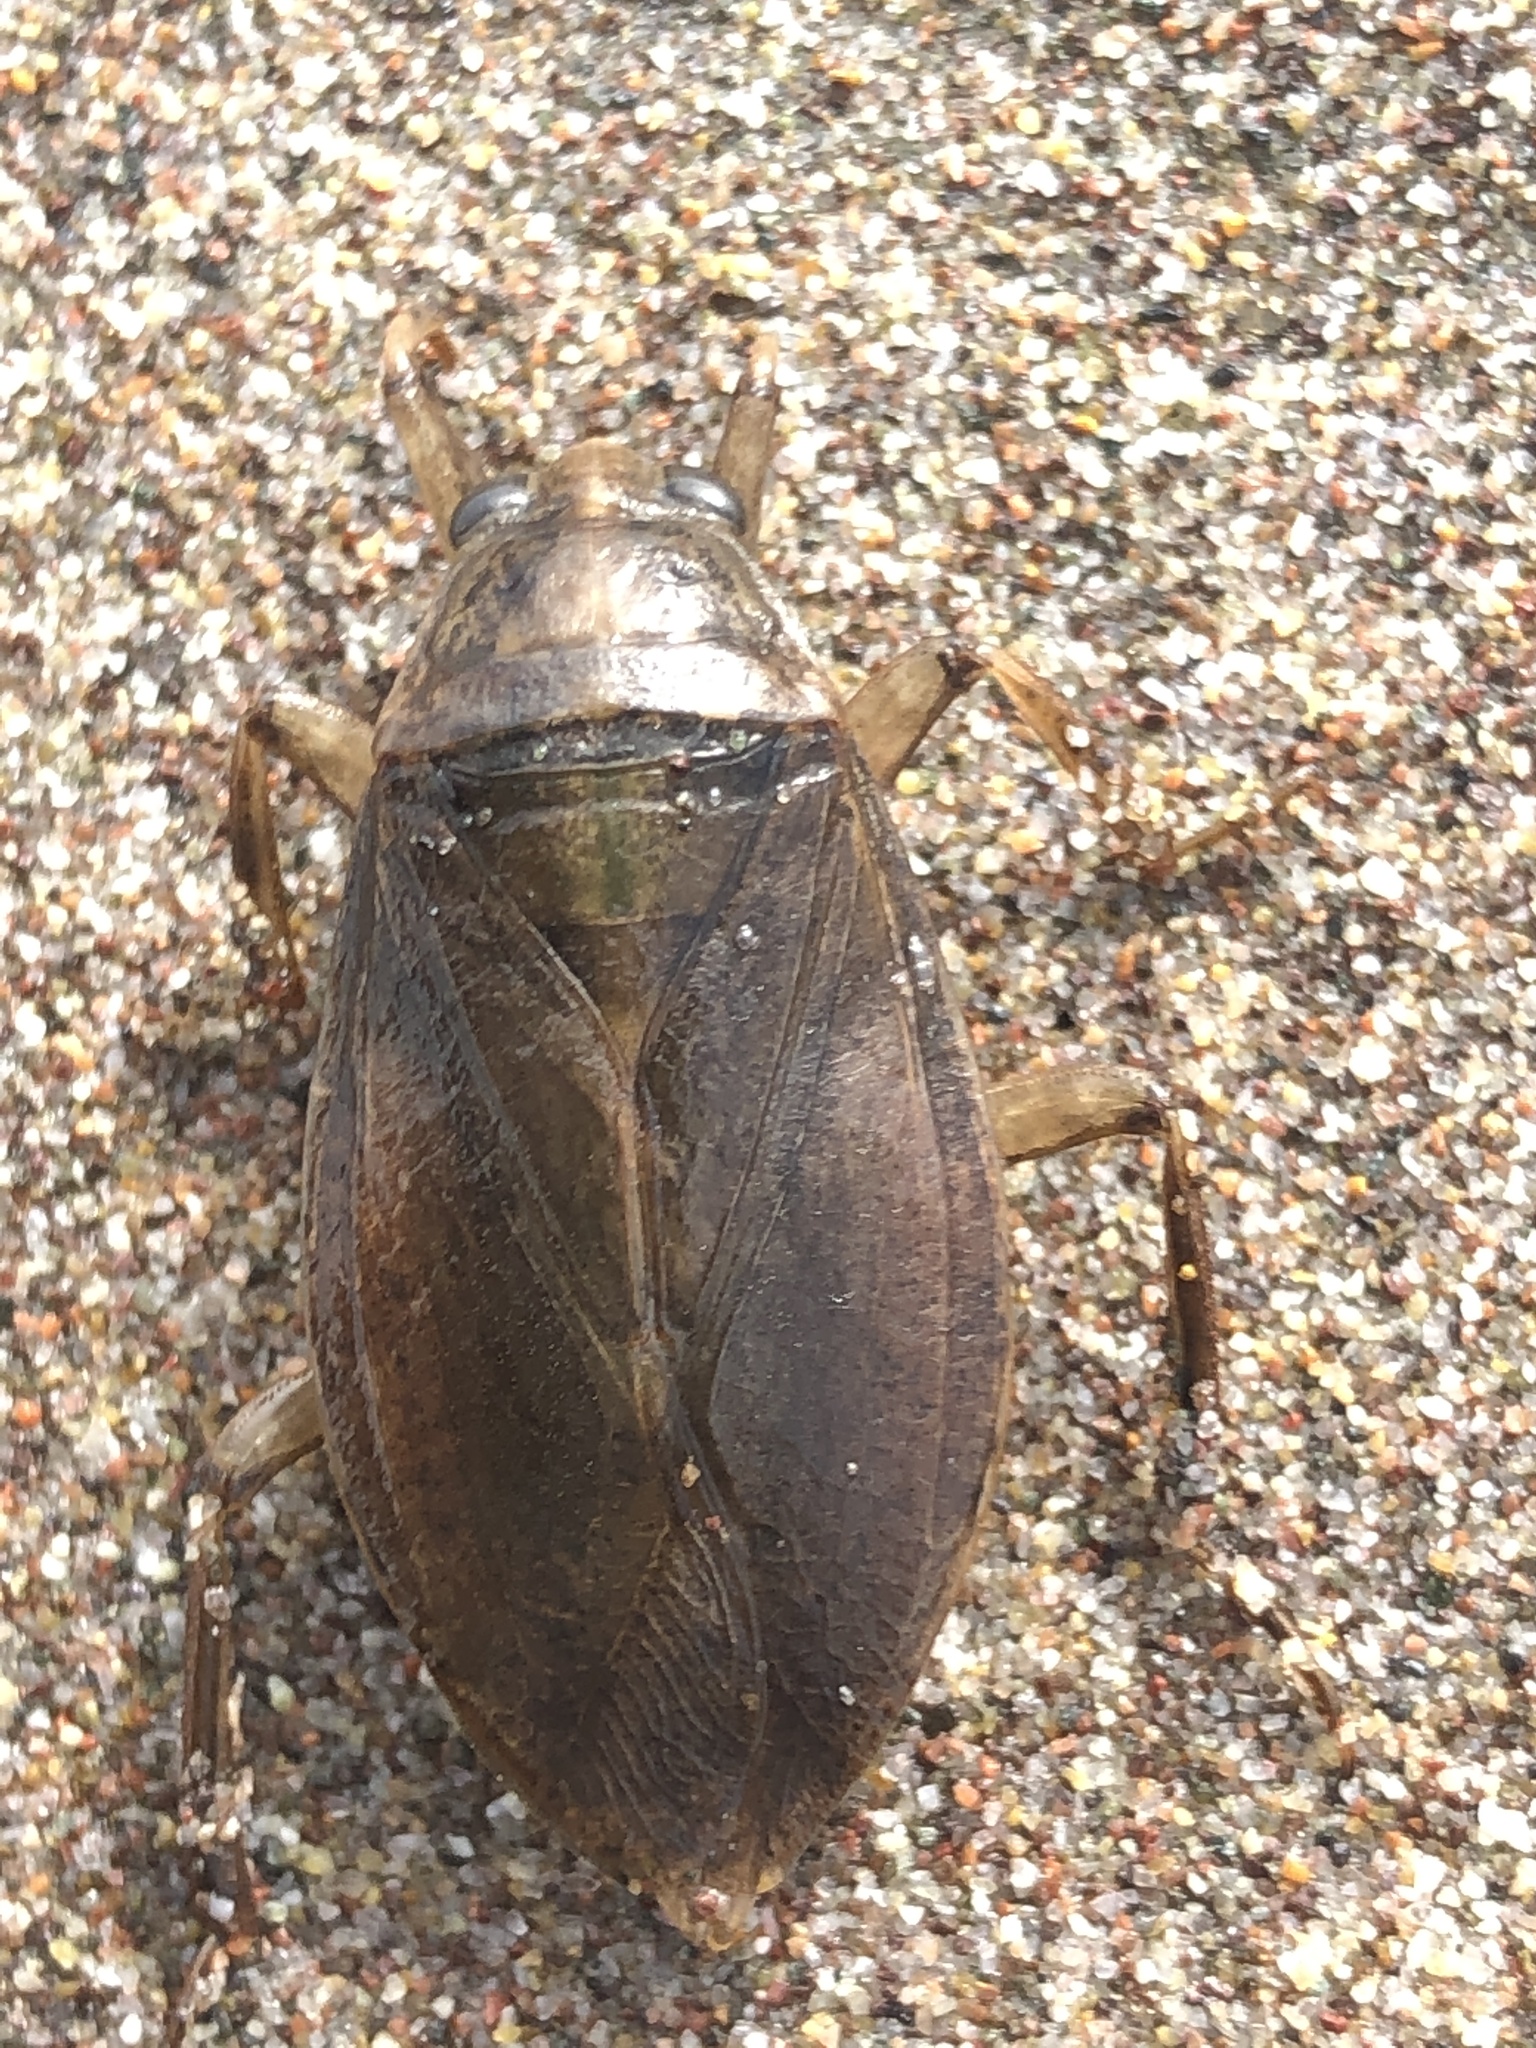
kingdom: Animalia
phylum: Arthropoda
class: Insecta
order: Hemiptera
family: Belostomatidae
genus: Belostoma
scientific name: Belostoma bifoveolatum
